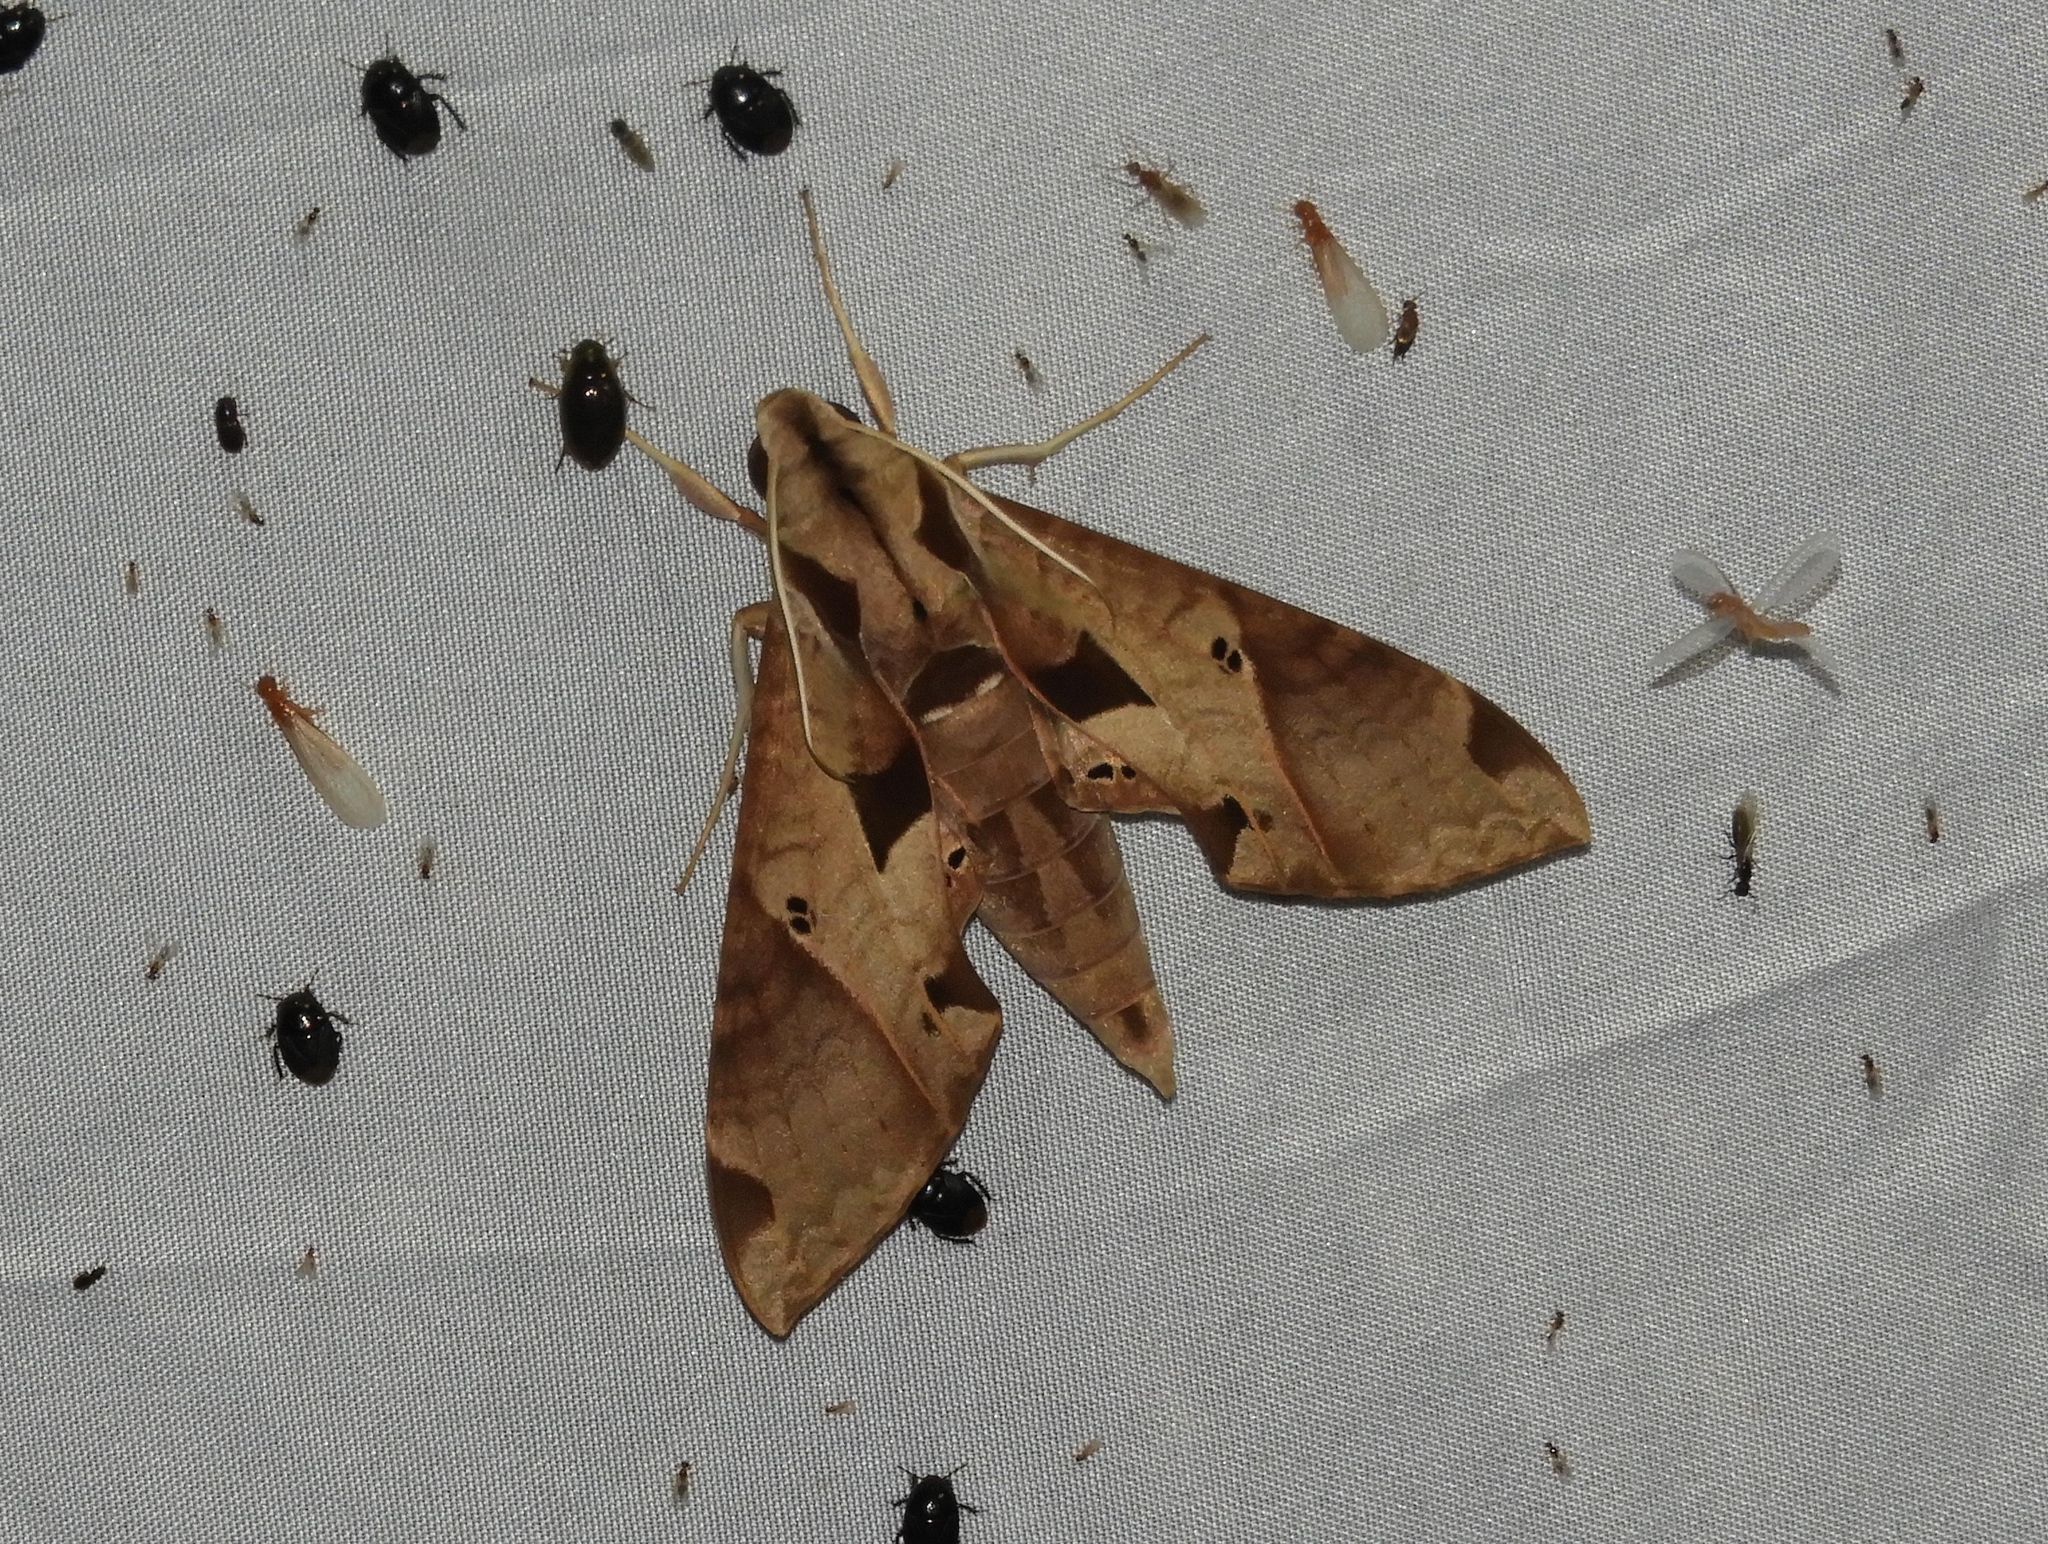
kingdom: Animalia
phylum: Arthropoda
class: Insecta
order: Lepidoptera
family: Sphingidae
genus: Eumorpha
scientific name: Eumorpha satellitia
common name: Satellite sphinx
